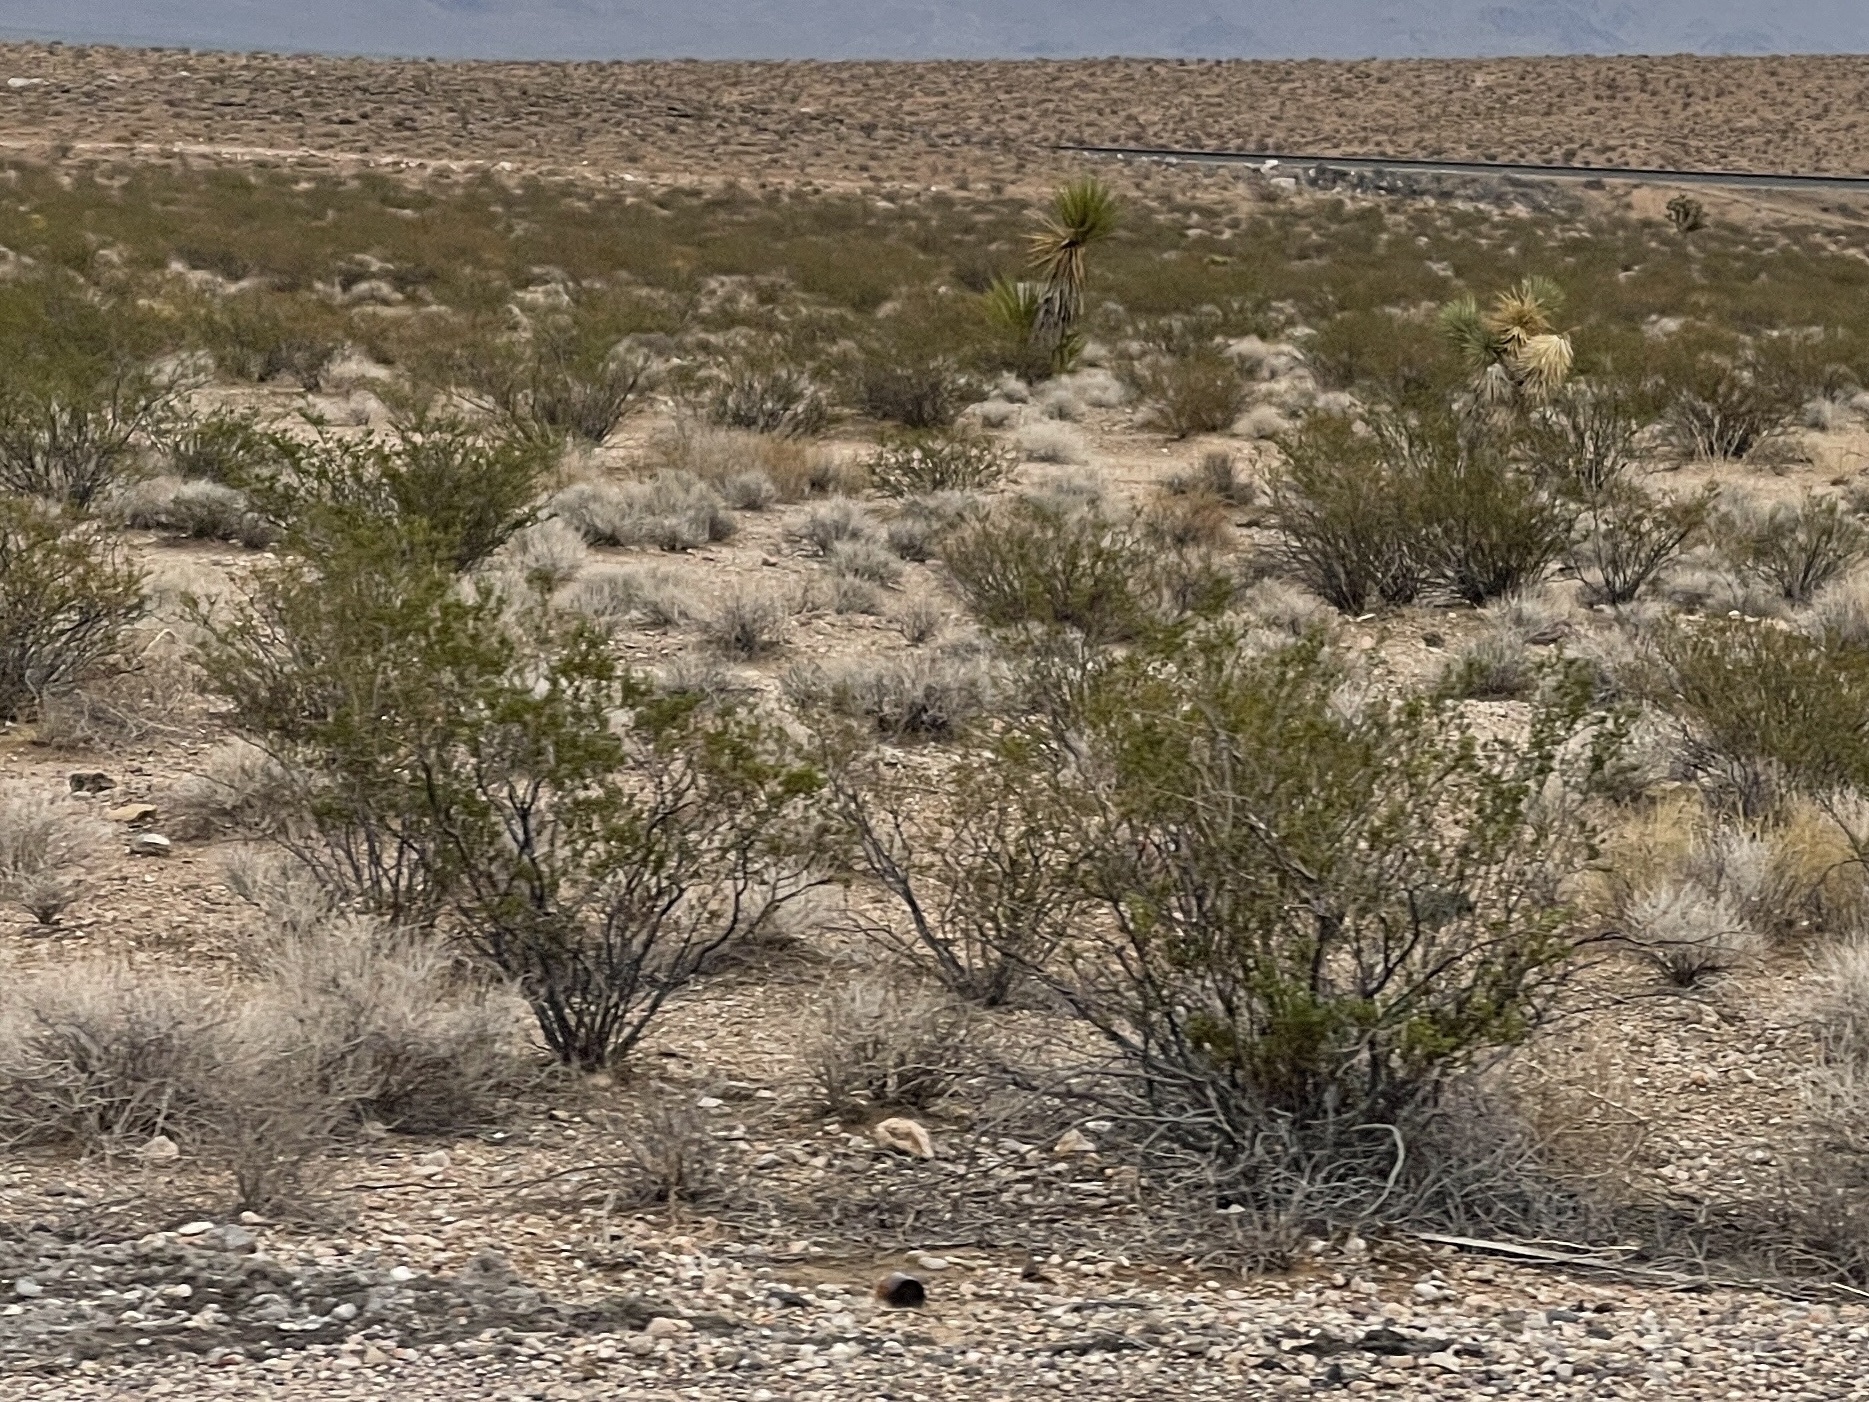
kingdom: Plantae
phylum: Tracheophyta
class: Magnoliopsida
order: Zygophyllales
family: Zygophyllaceae
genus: Larrea
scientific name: Larrea tridentata
